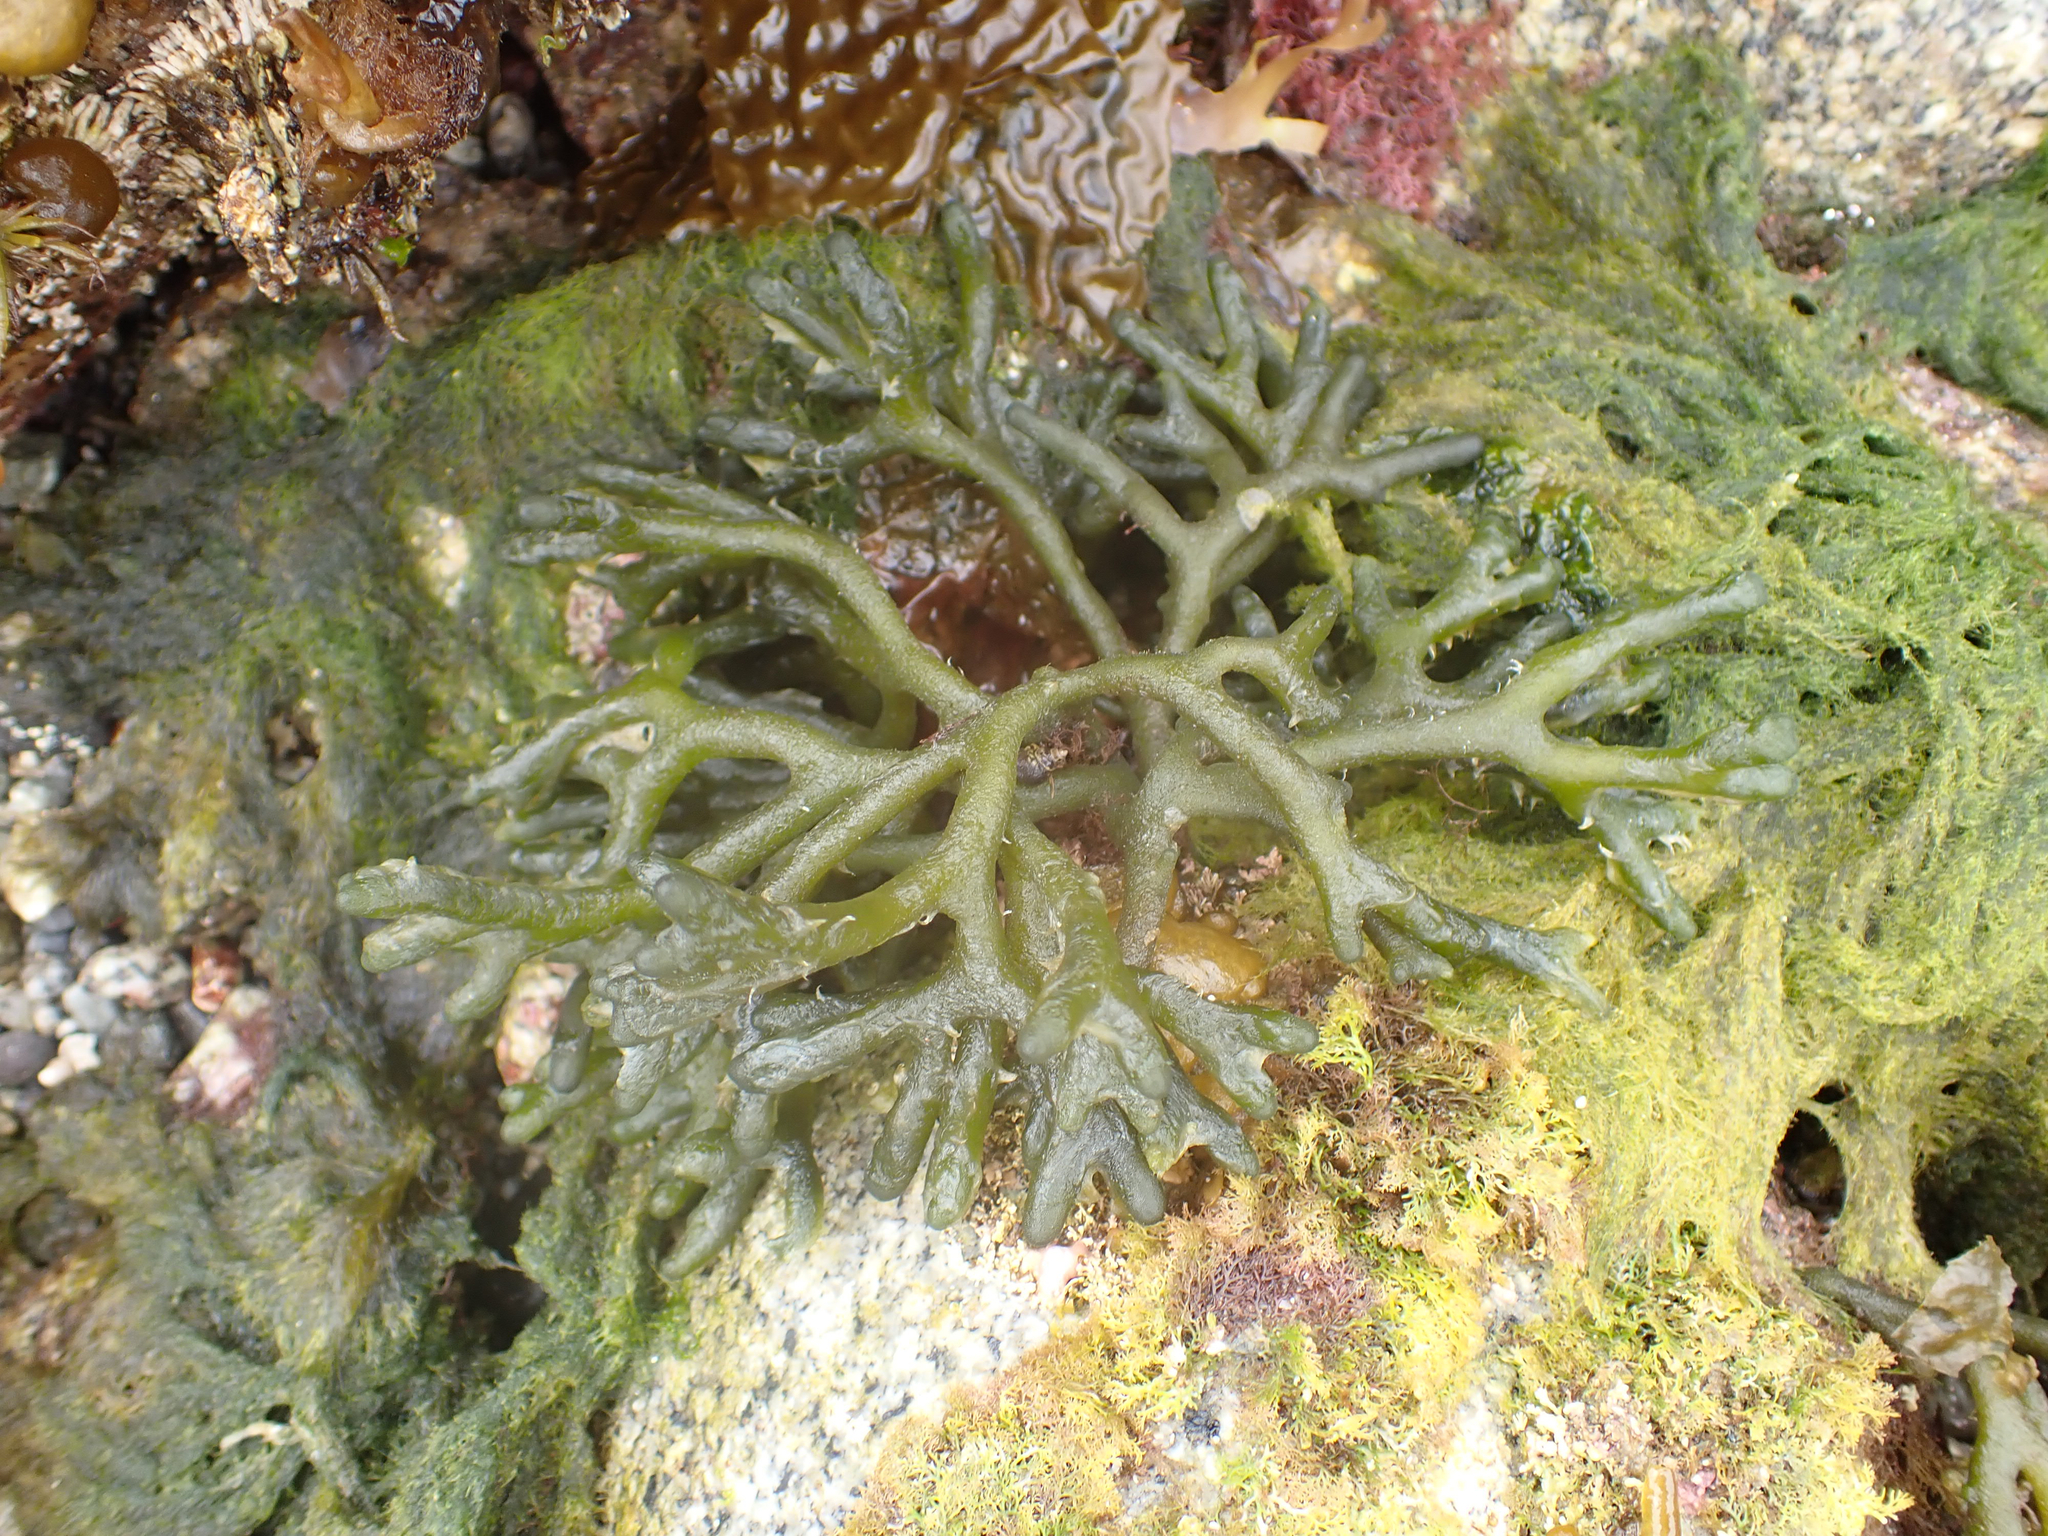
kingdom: Plantae
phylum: Chlorophyta
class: Ulvophyceae
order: Bryopsidales
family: Codiaceae
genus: Codium
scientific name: Codium fragile
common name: Dead man's fingers
